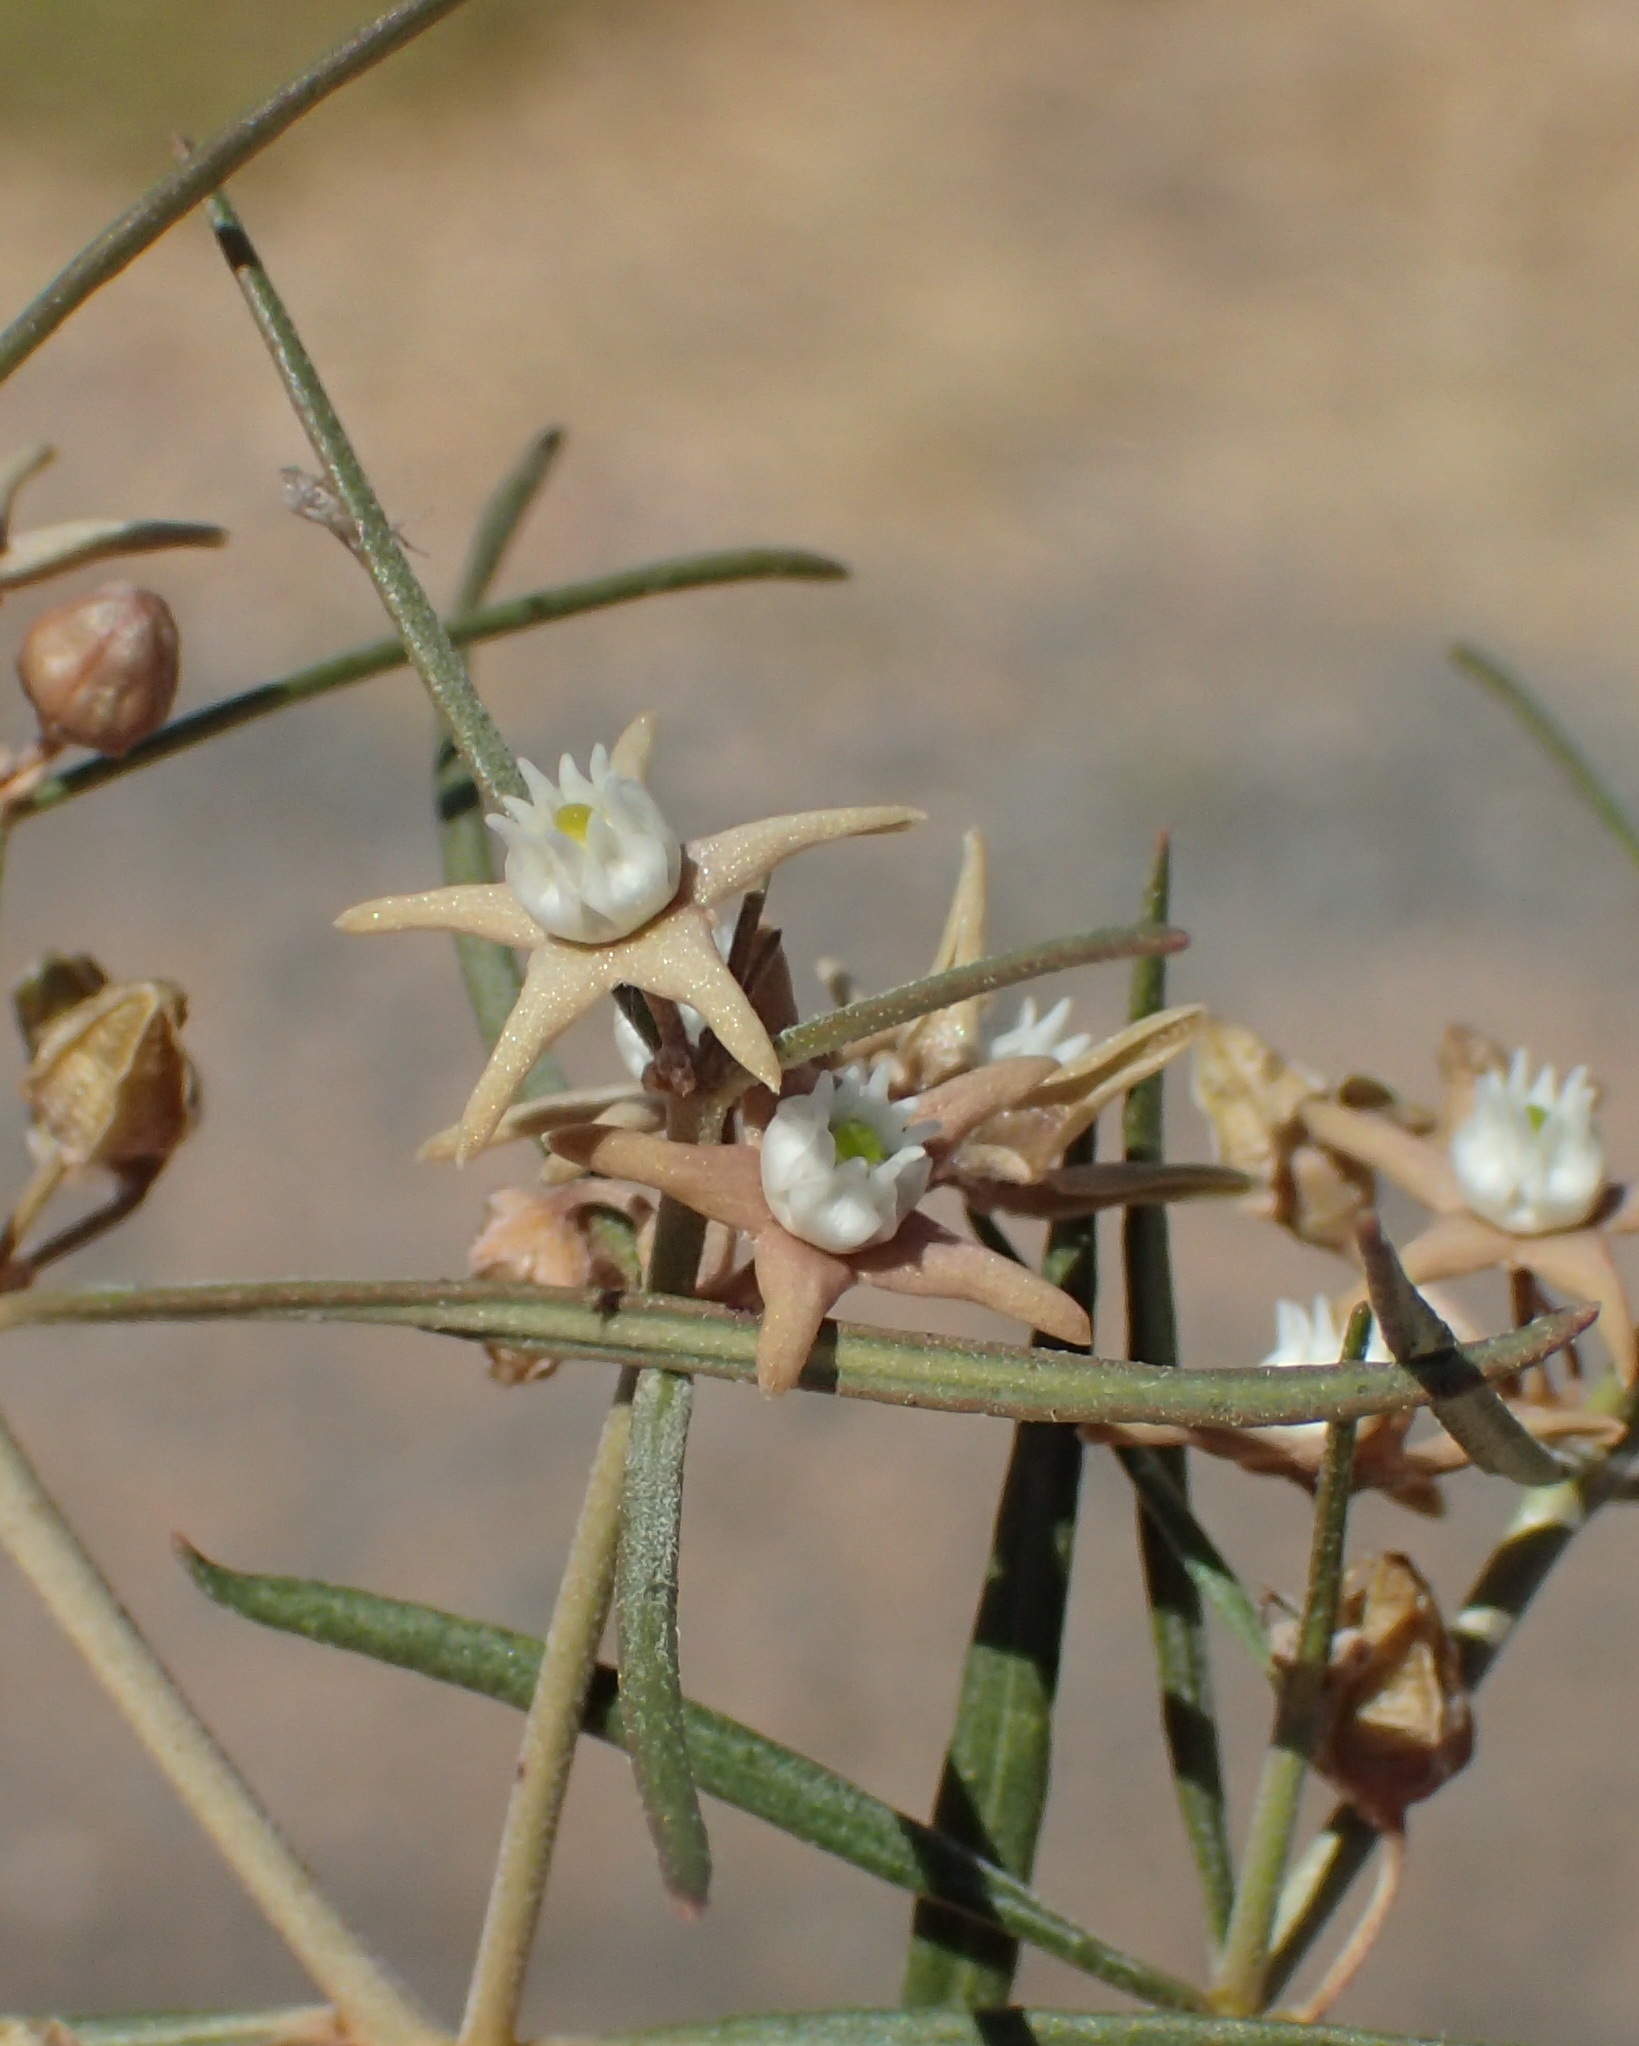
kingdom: Plantae
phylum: Tracheophyta
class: Magnoliopsida
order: Gentianales
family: Apocynaceae
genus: Cynanchum
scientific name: Cynanchum orangeanum
